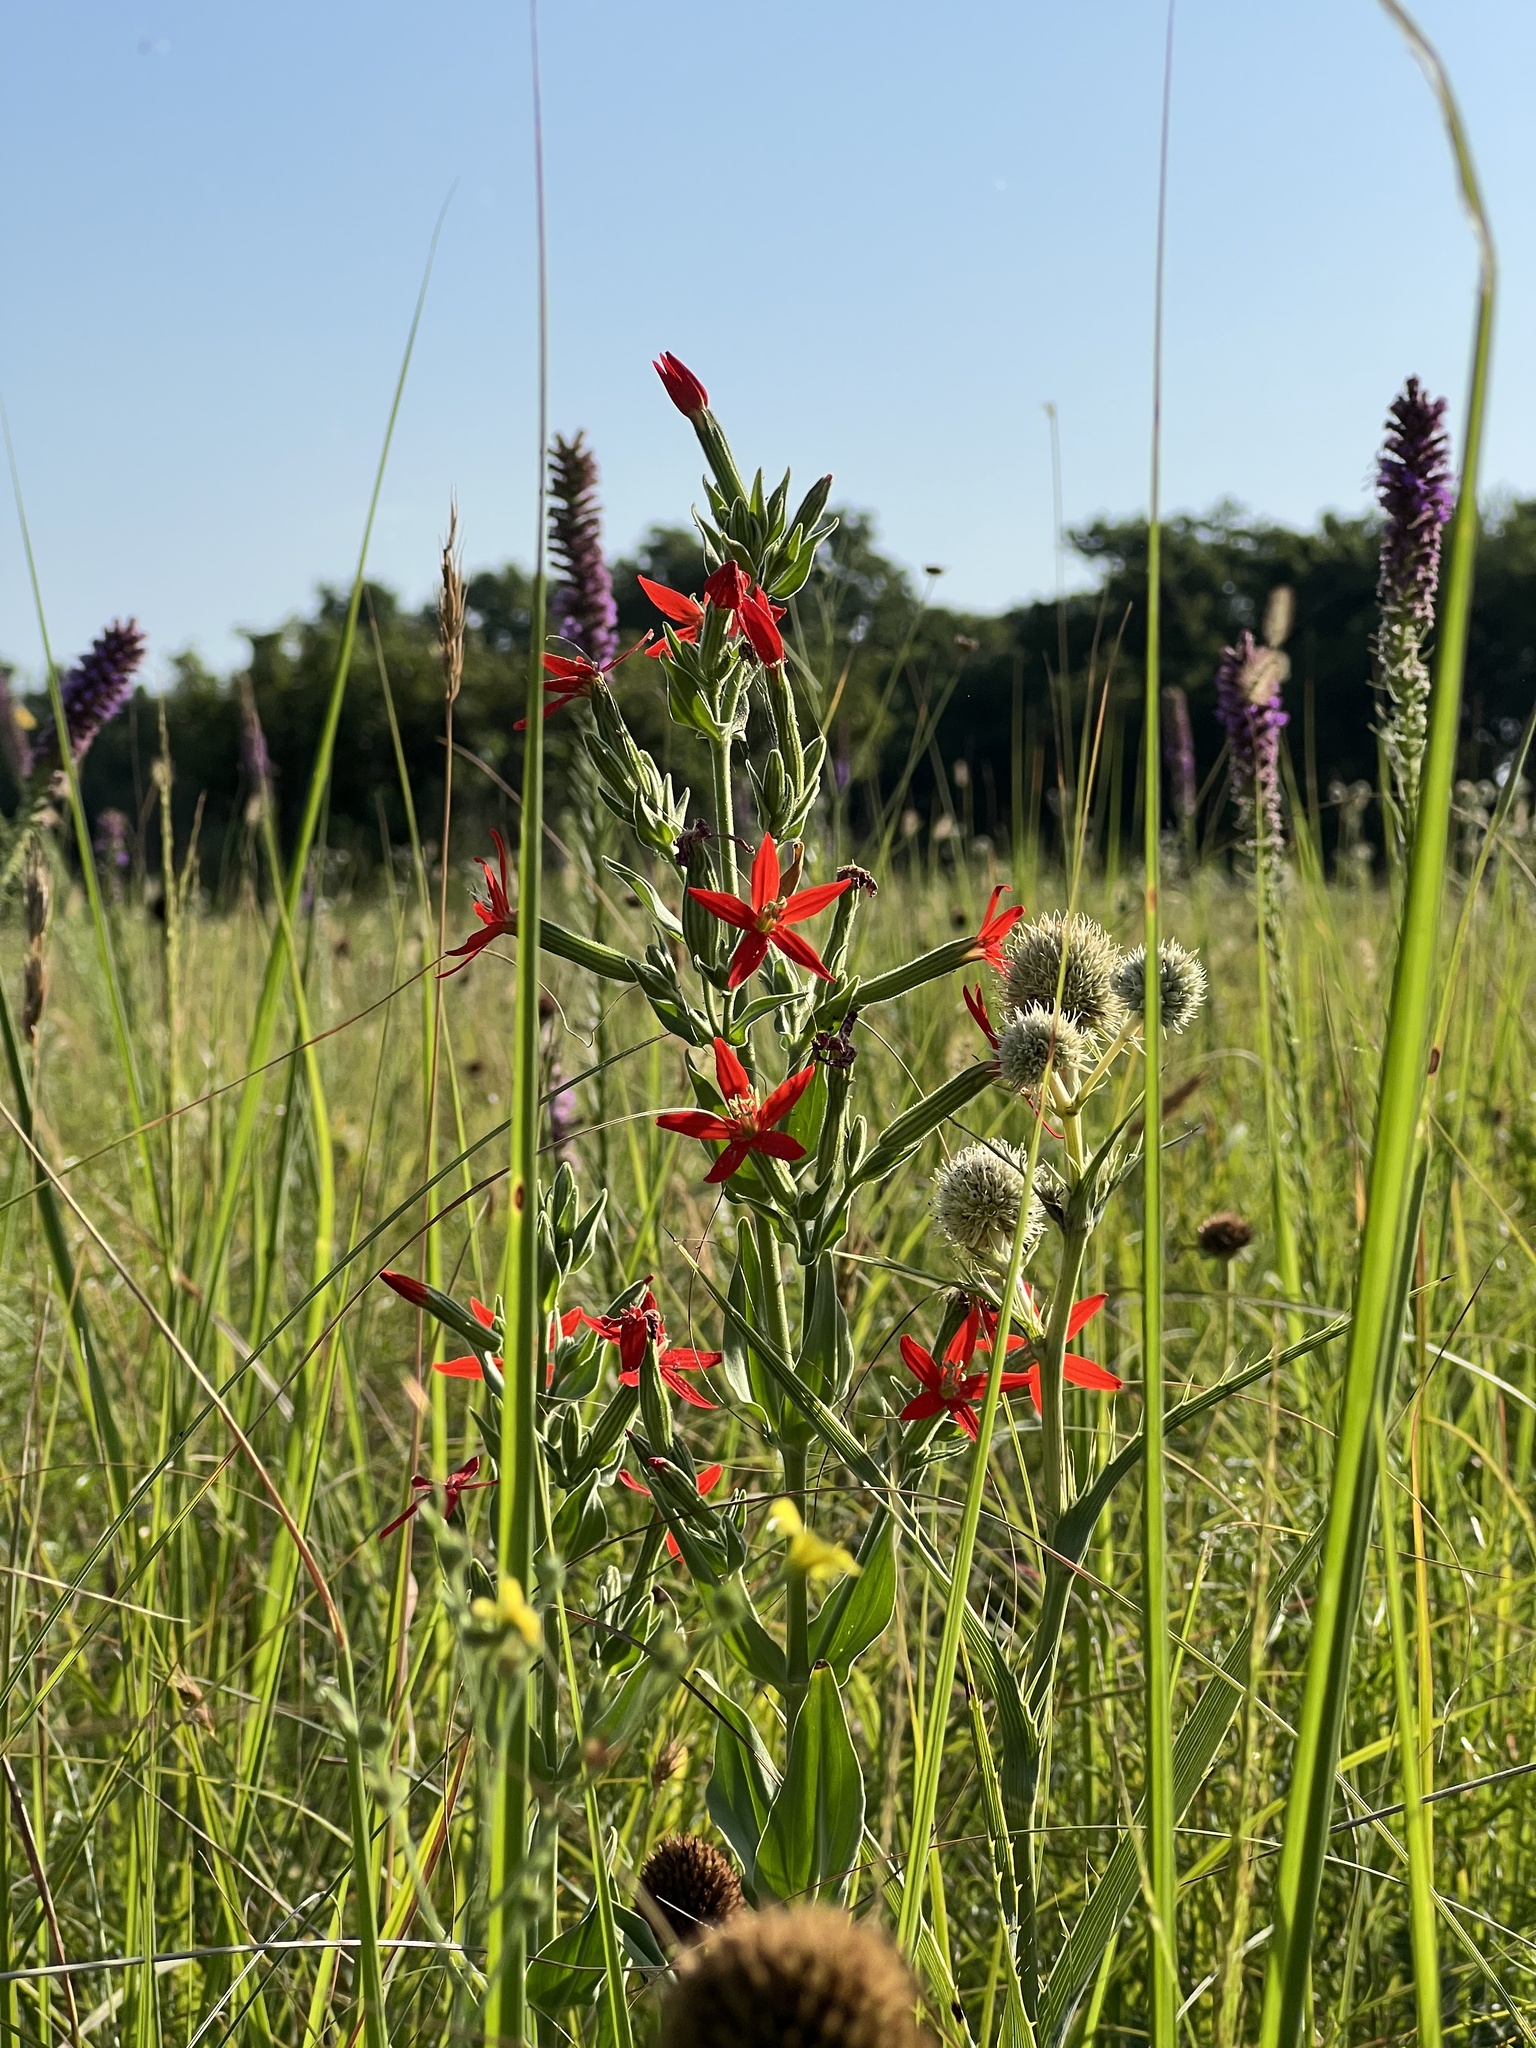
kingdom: Plantae
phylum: Tracheophyta
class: Magnoliopsida
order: Caryophyllales
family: Caryophyllaceae
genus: Silene
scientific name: Silene regia
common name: Royal catchfly
